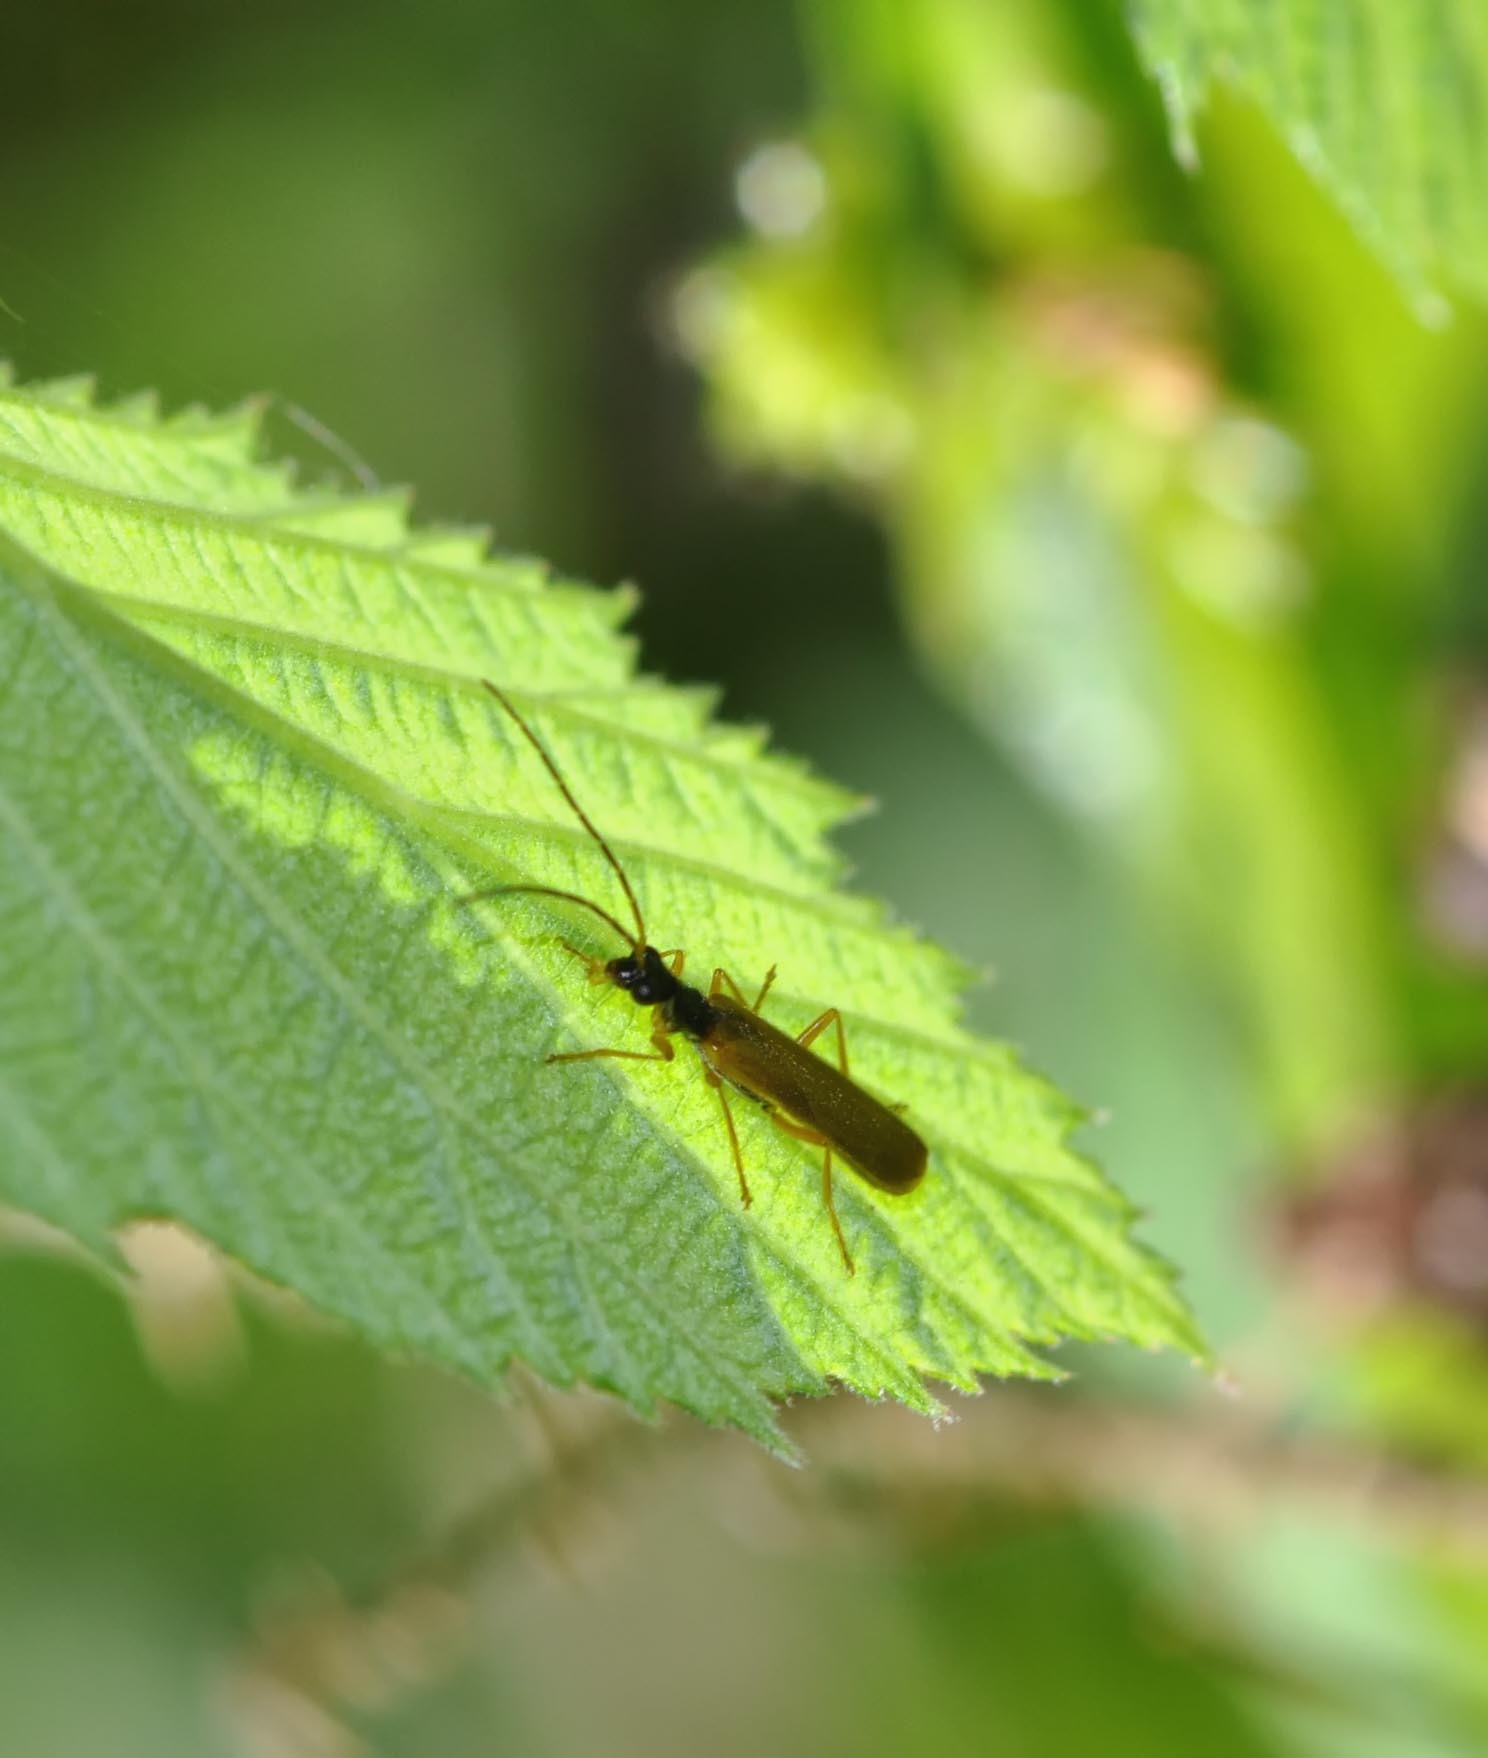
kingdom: Animalia
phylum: Arthropoda
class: Insecta
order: Coleoptera
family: Cantharidae
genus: Rhagonycha
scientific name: Rhagonycha lignosa
